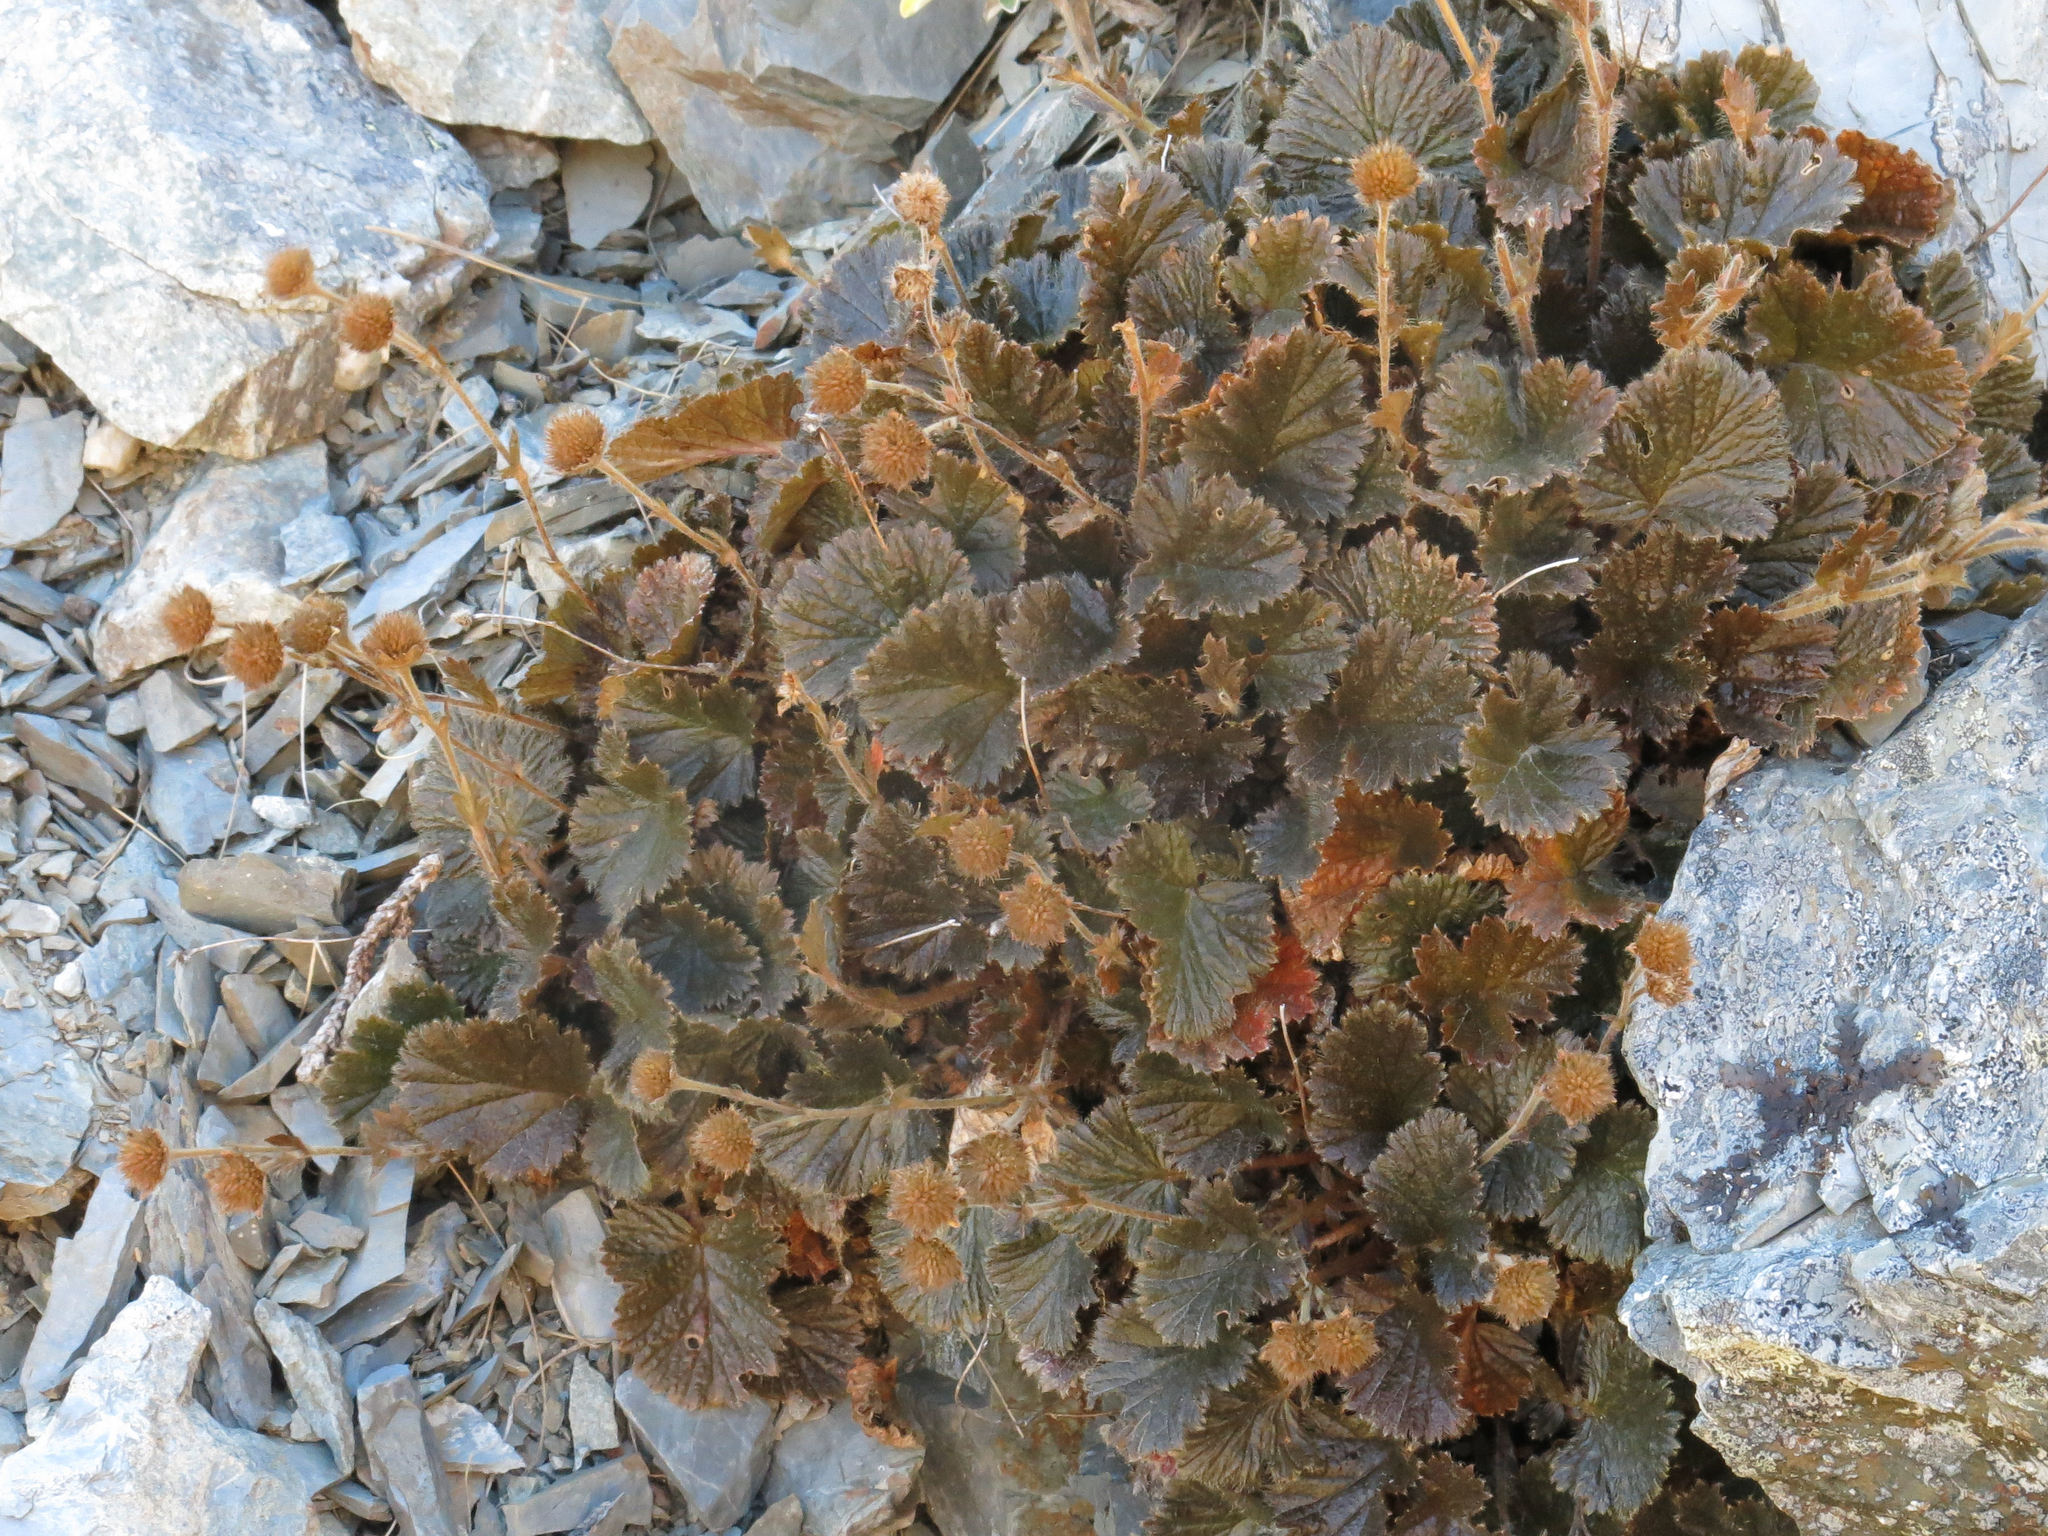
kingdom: Plantae
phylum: Tracheophyta
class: Magnoliopsida
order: Rosales
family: Rosaceae
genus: Geum
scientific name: Geum cockaynei
